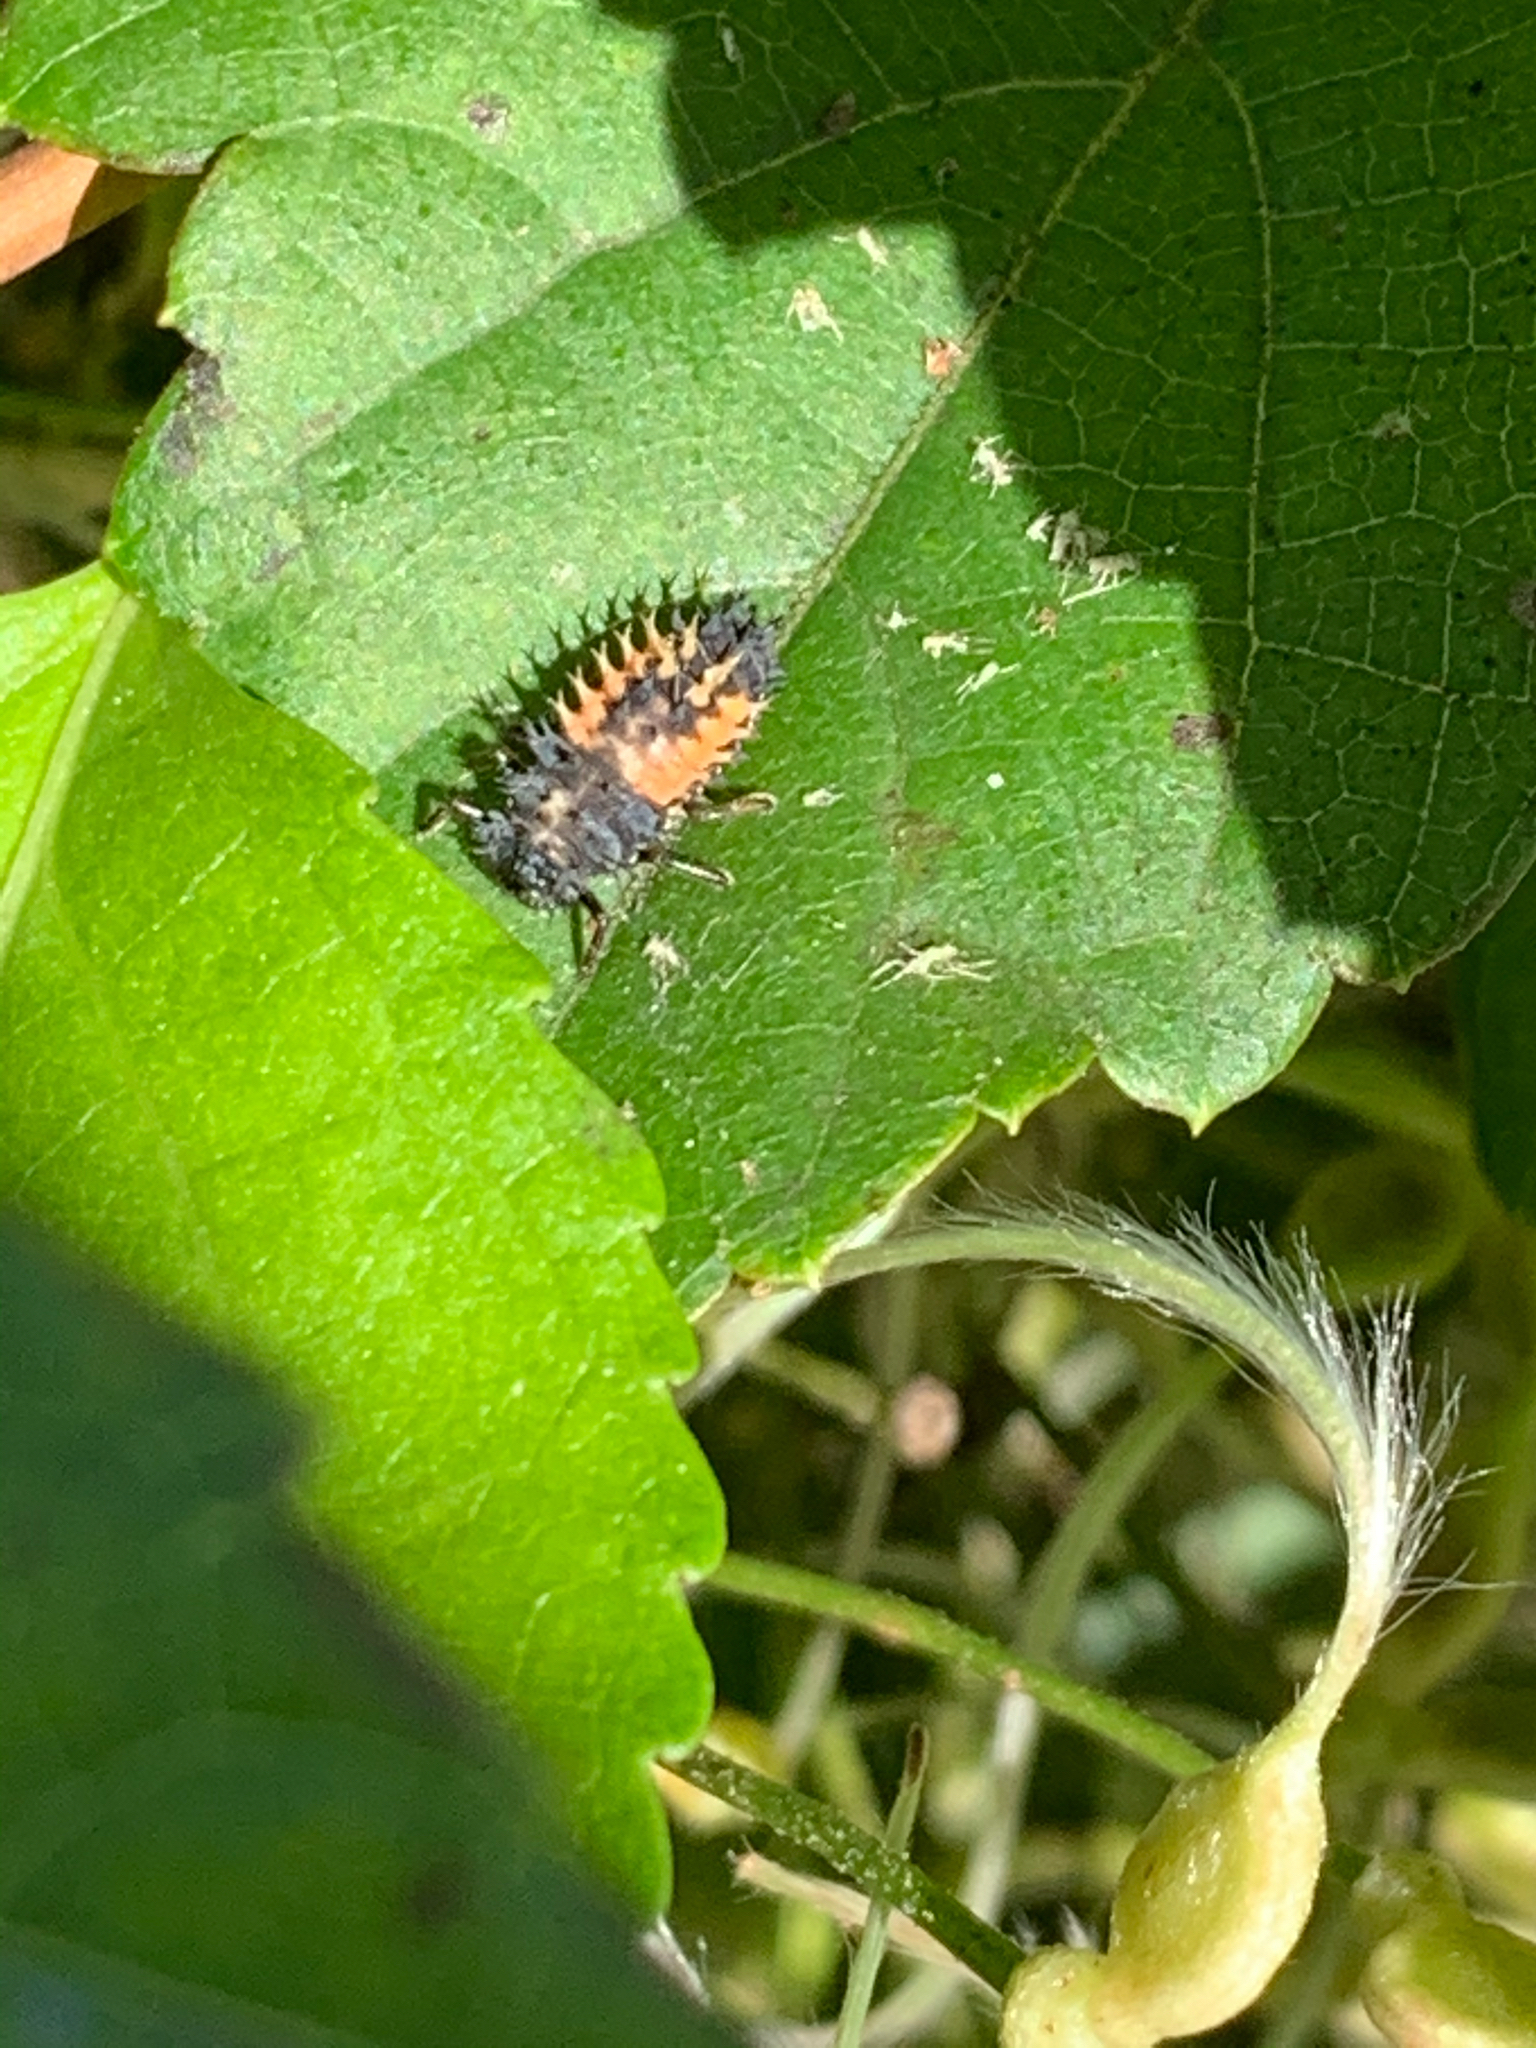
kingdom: Animalia
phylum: Arthropoda
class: Insecta
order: Coleoptera
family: Coccinellidae
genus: Harmonia
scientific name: Harmonia axyridis
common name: Harlequin ladybird
